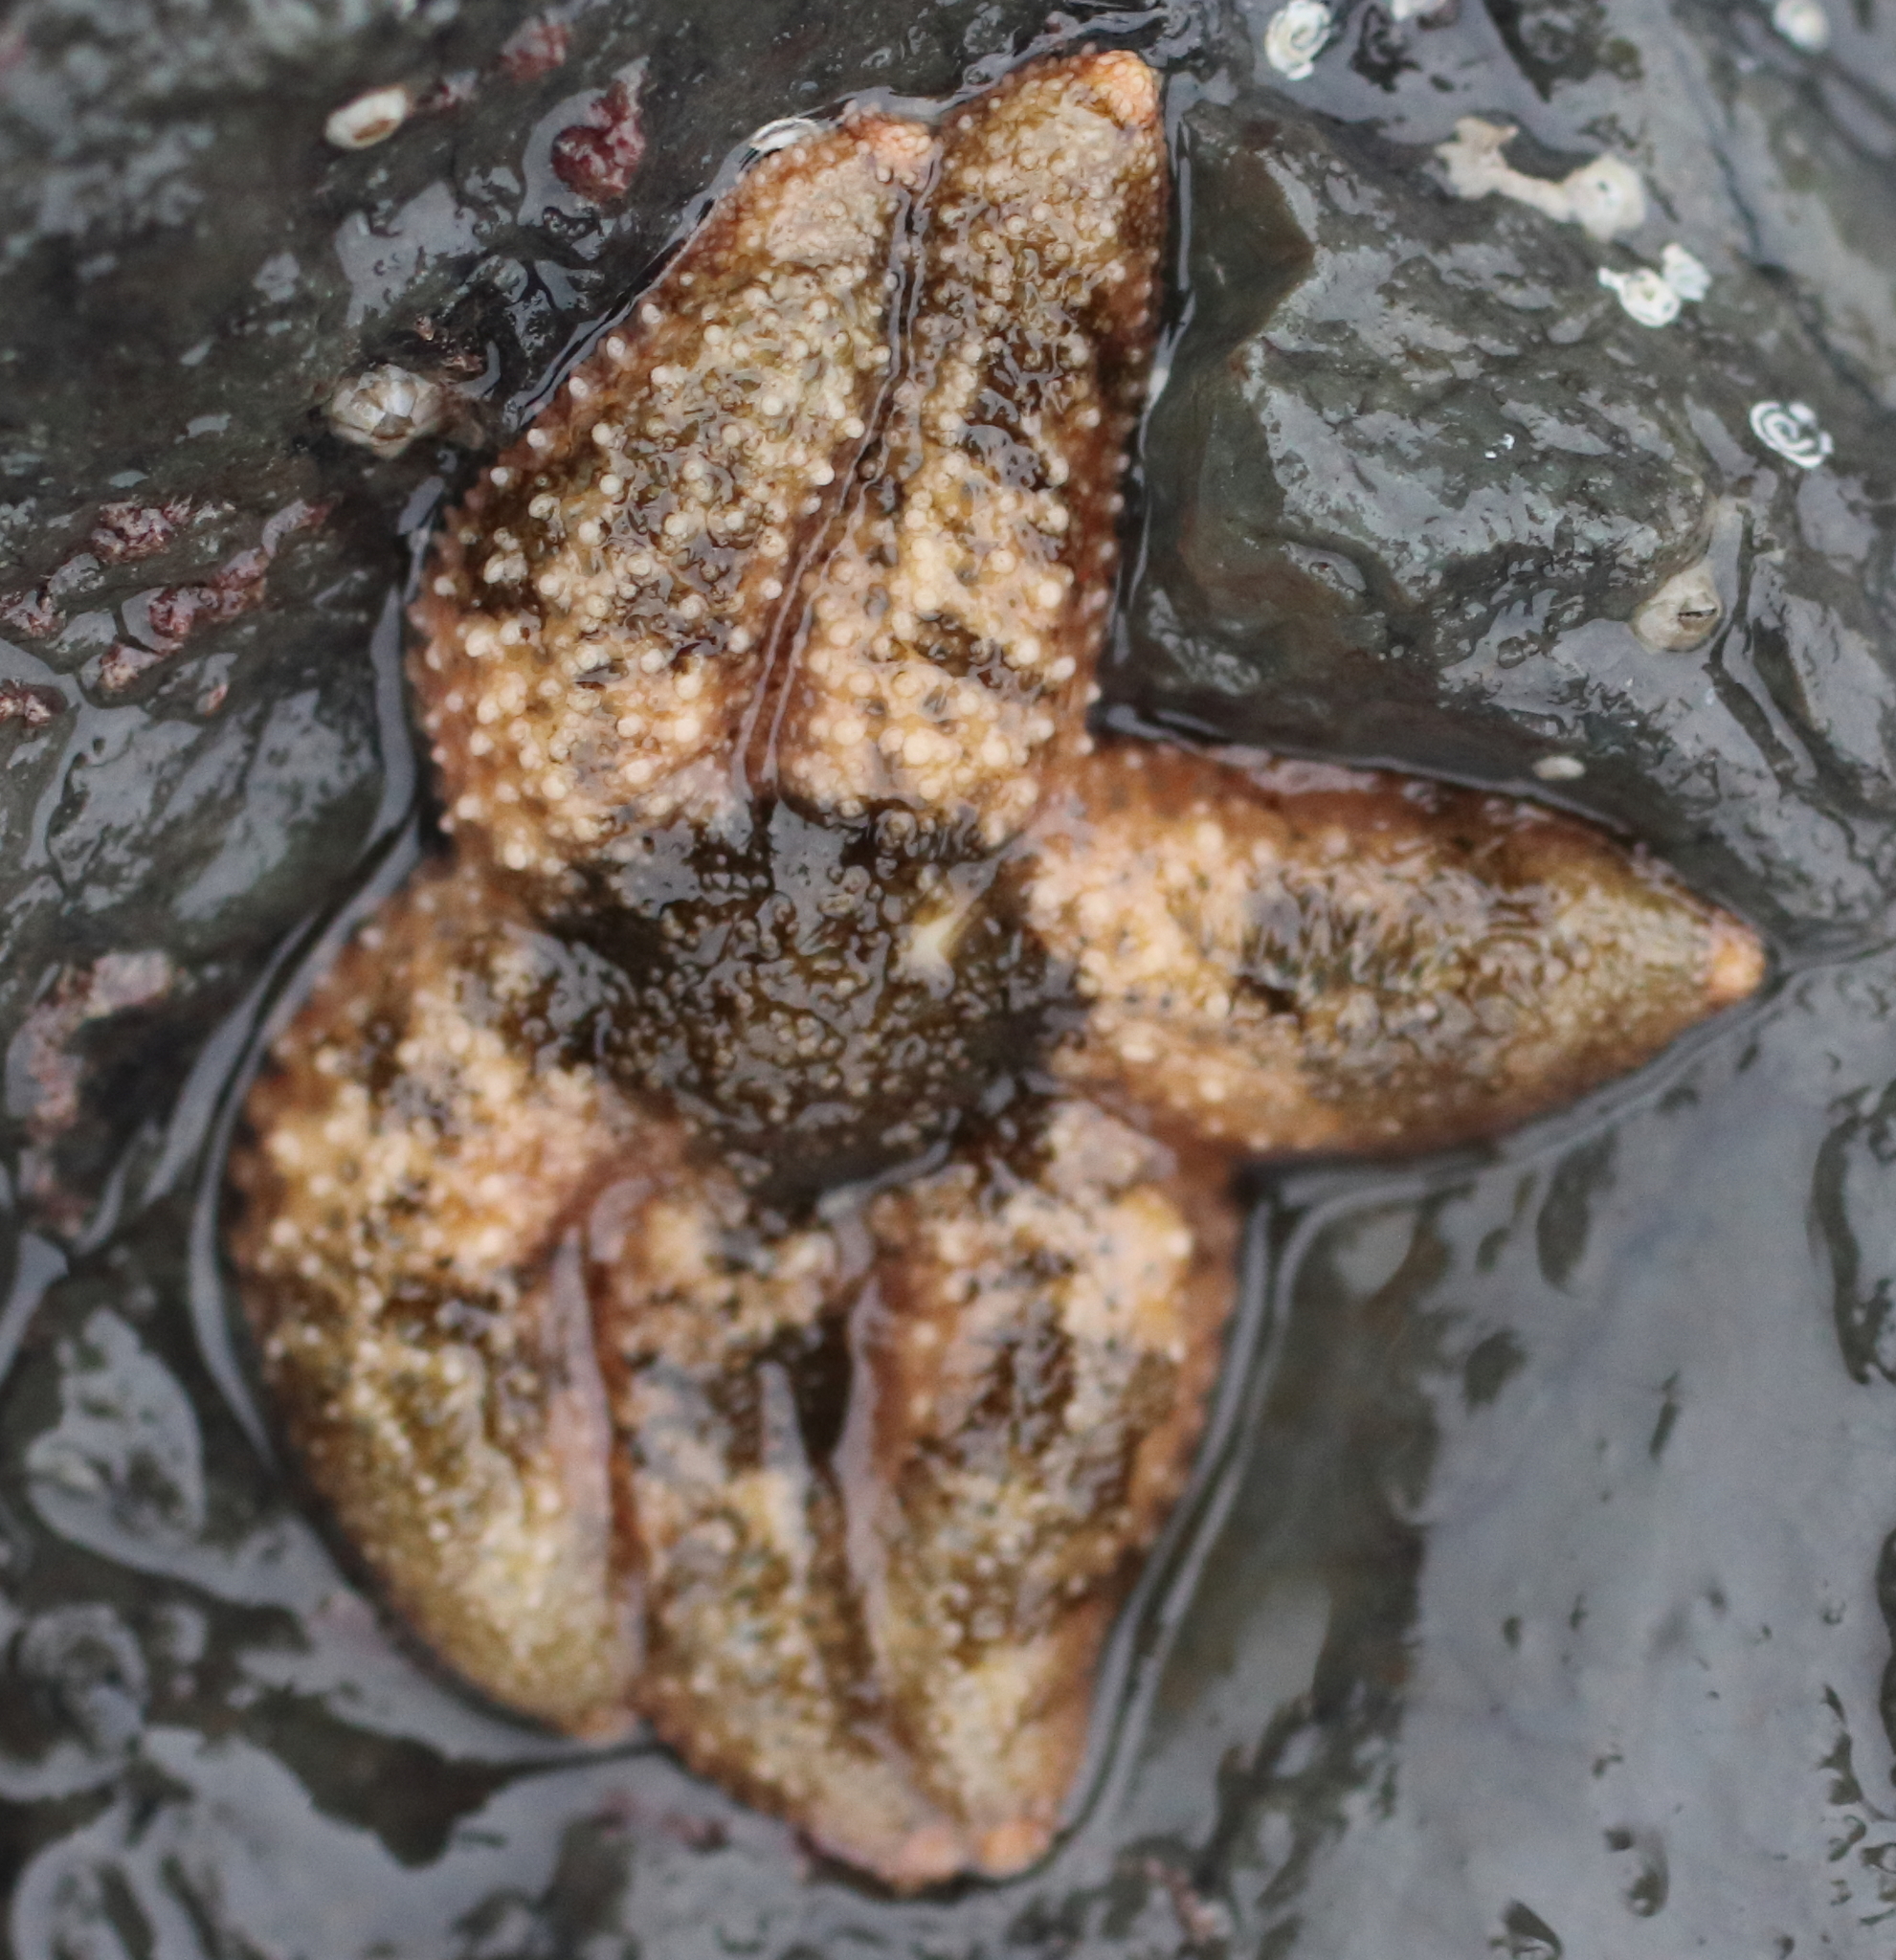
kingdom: Animalia
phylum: Echinodermata
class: Asteroidea
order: Forcipulatida
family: Asteriidae
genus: Leptasterias
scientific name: Leptasterias hexactis
